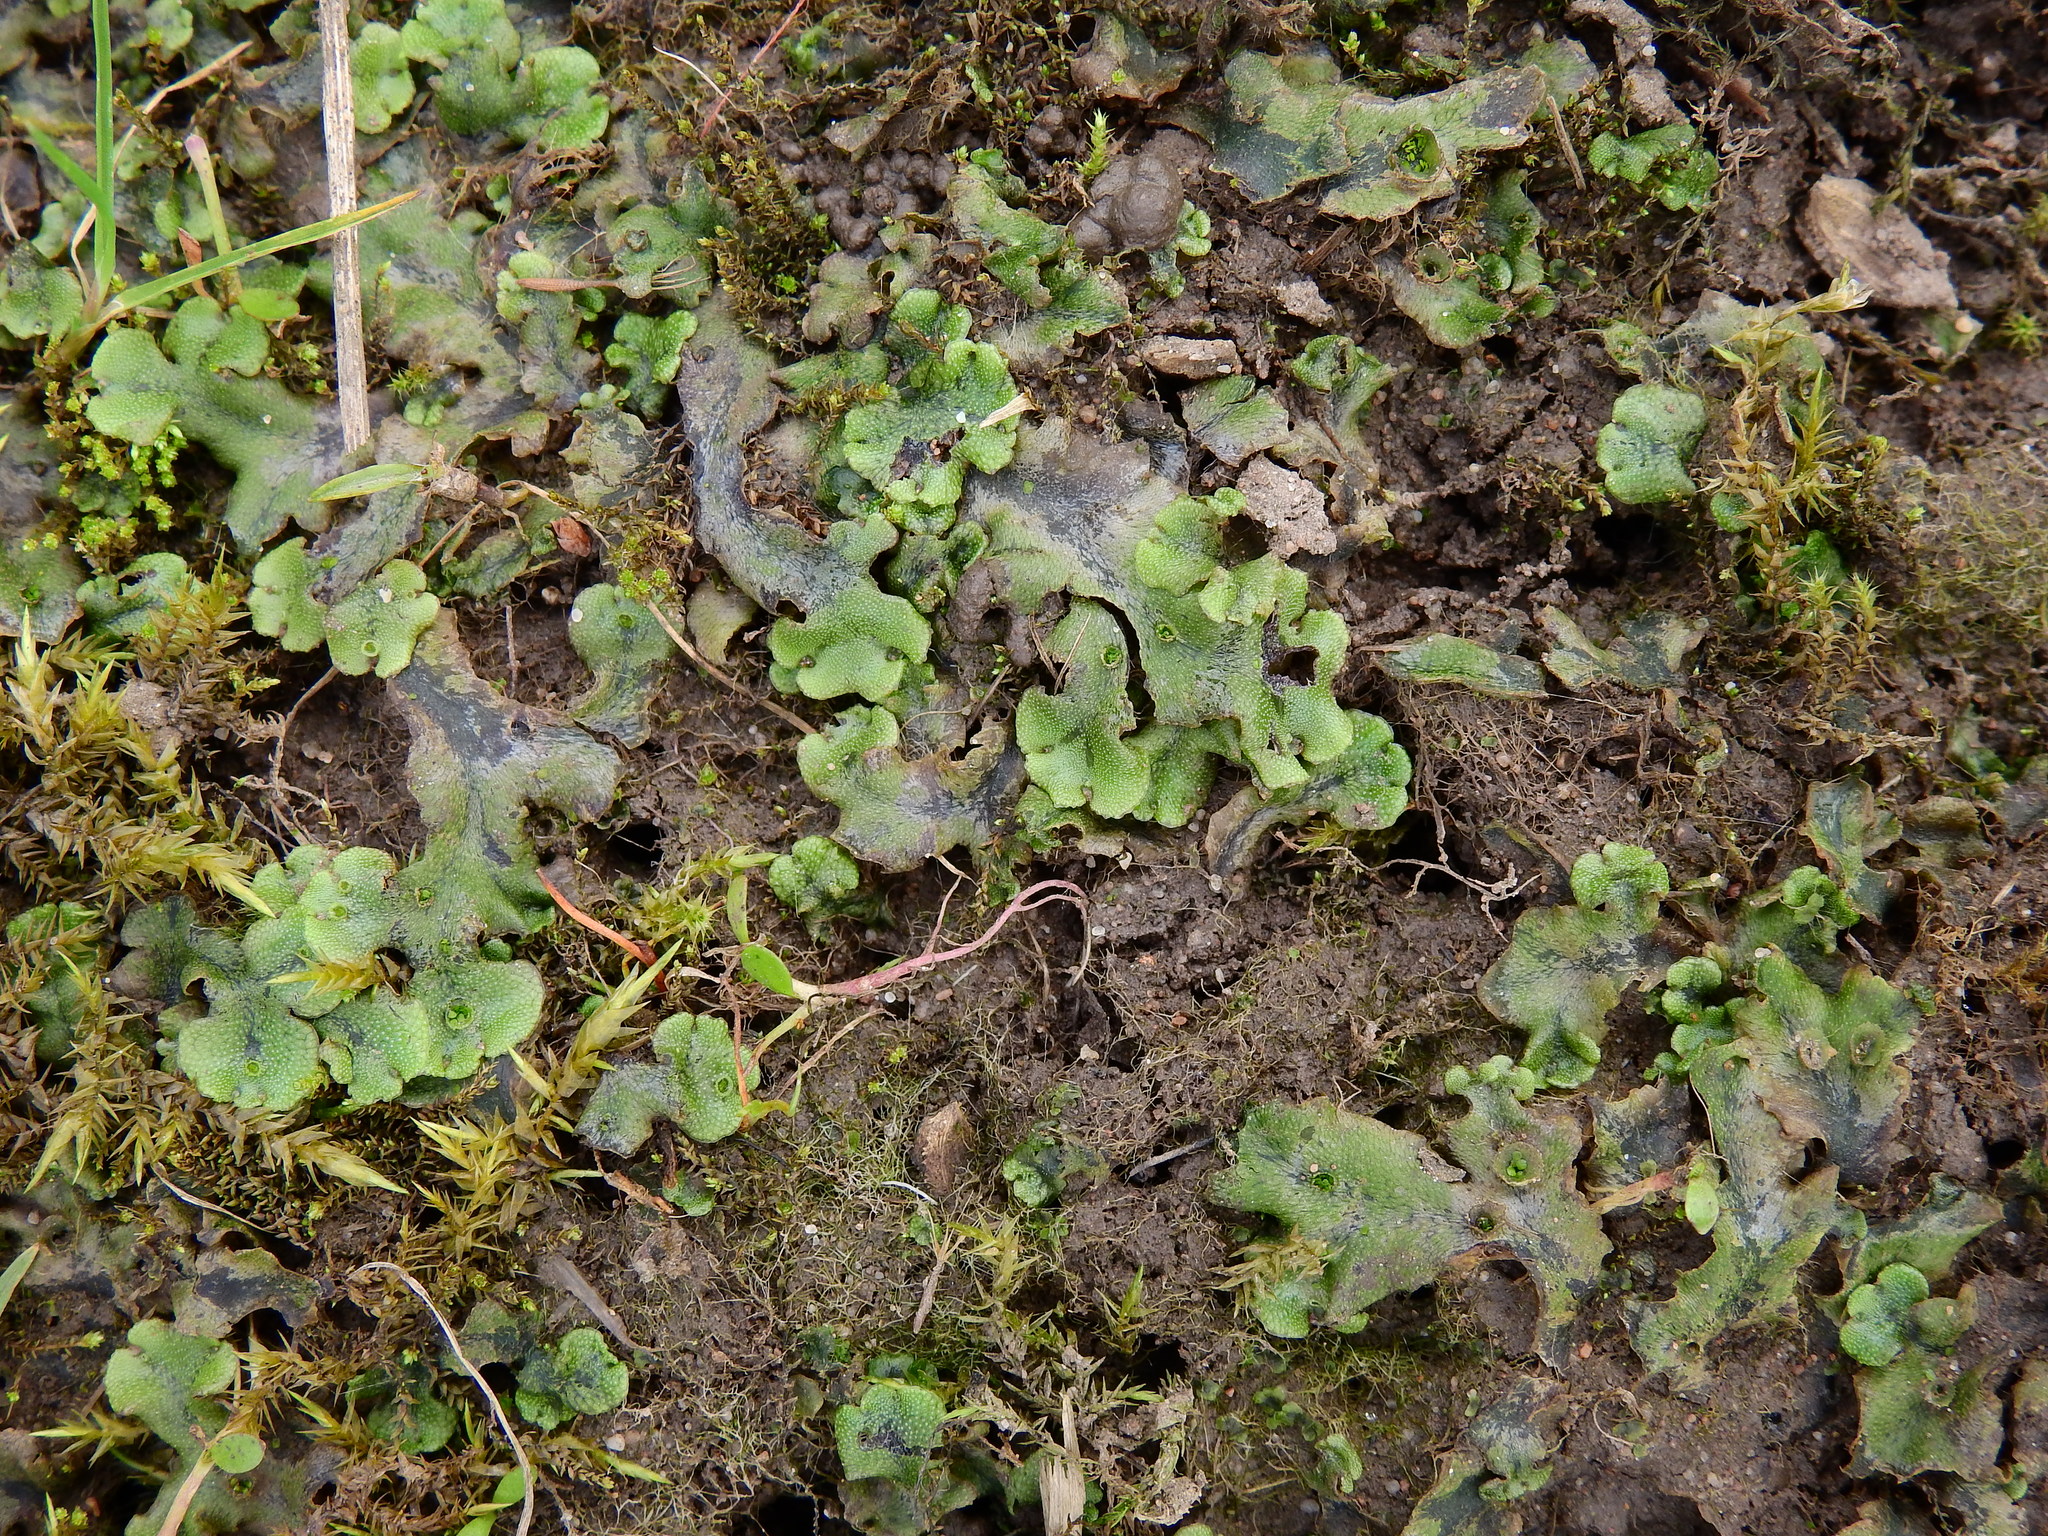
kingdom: Plantae
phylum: Marchantiophyta
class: Marchantiopsida
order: Marchantiales
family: Marchantiaceae
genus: Marchantia
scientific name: Marchantia polymorpha
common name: Common liverwort
